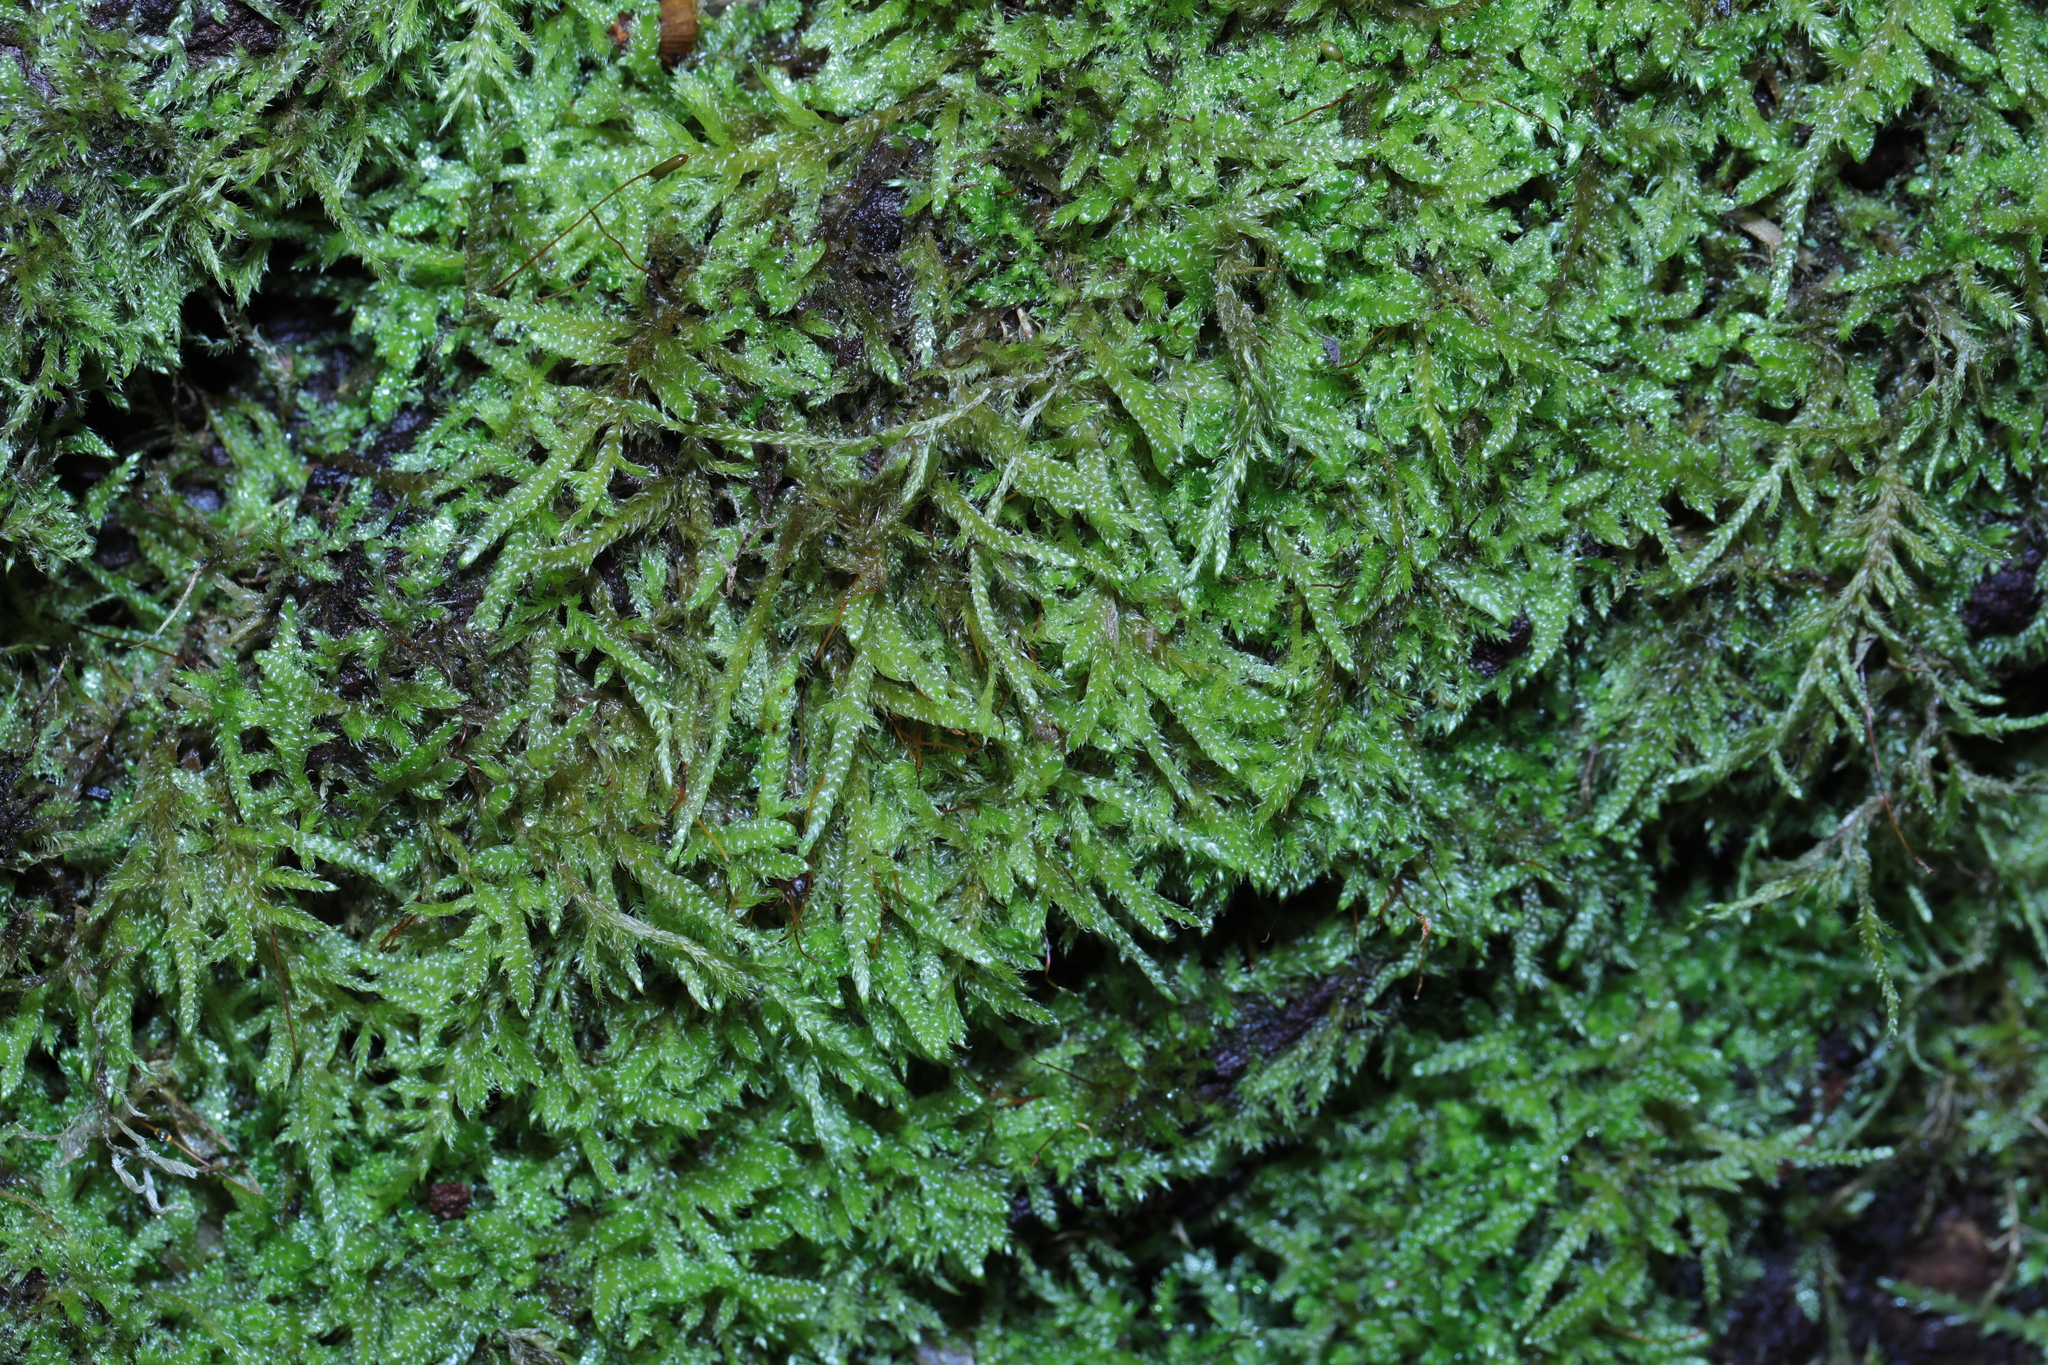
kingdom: Plantae
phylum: Bryophyta
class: Bryopsida
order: Hypnales
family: Hypnaceae
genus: Hypnum
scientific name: Hypnum cupressiforme
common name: Cypress-leaved plait-moss
